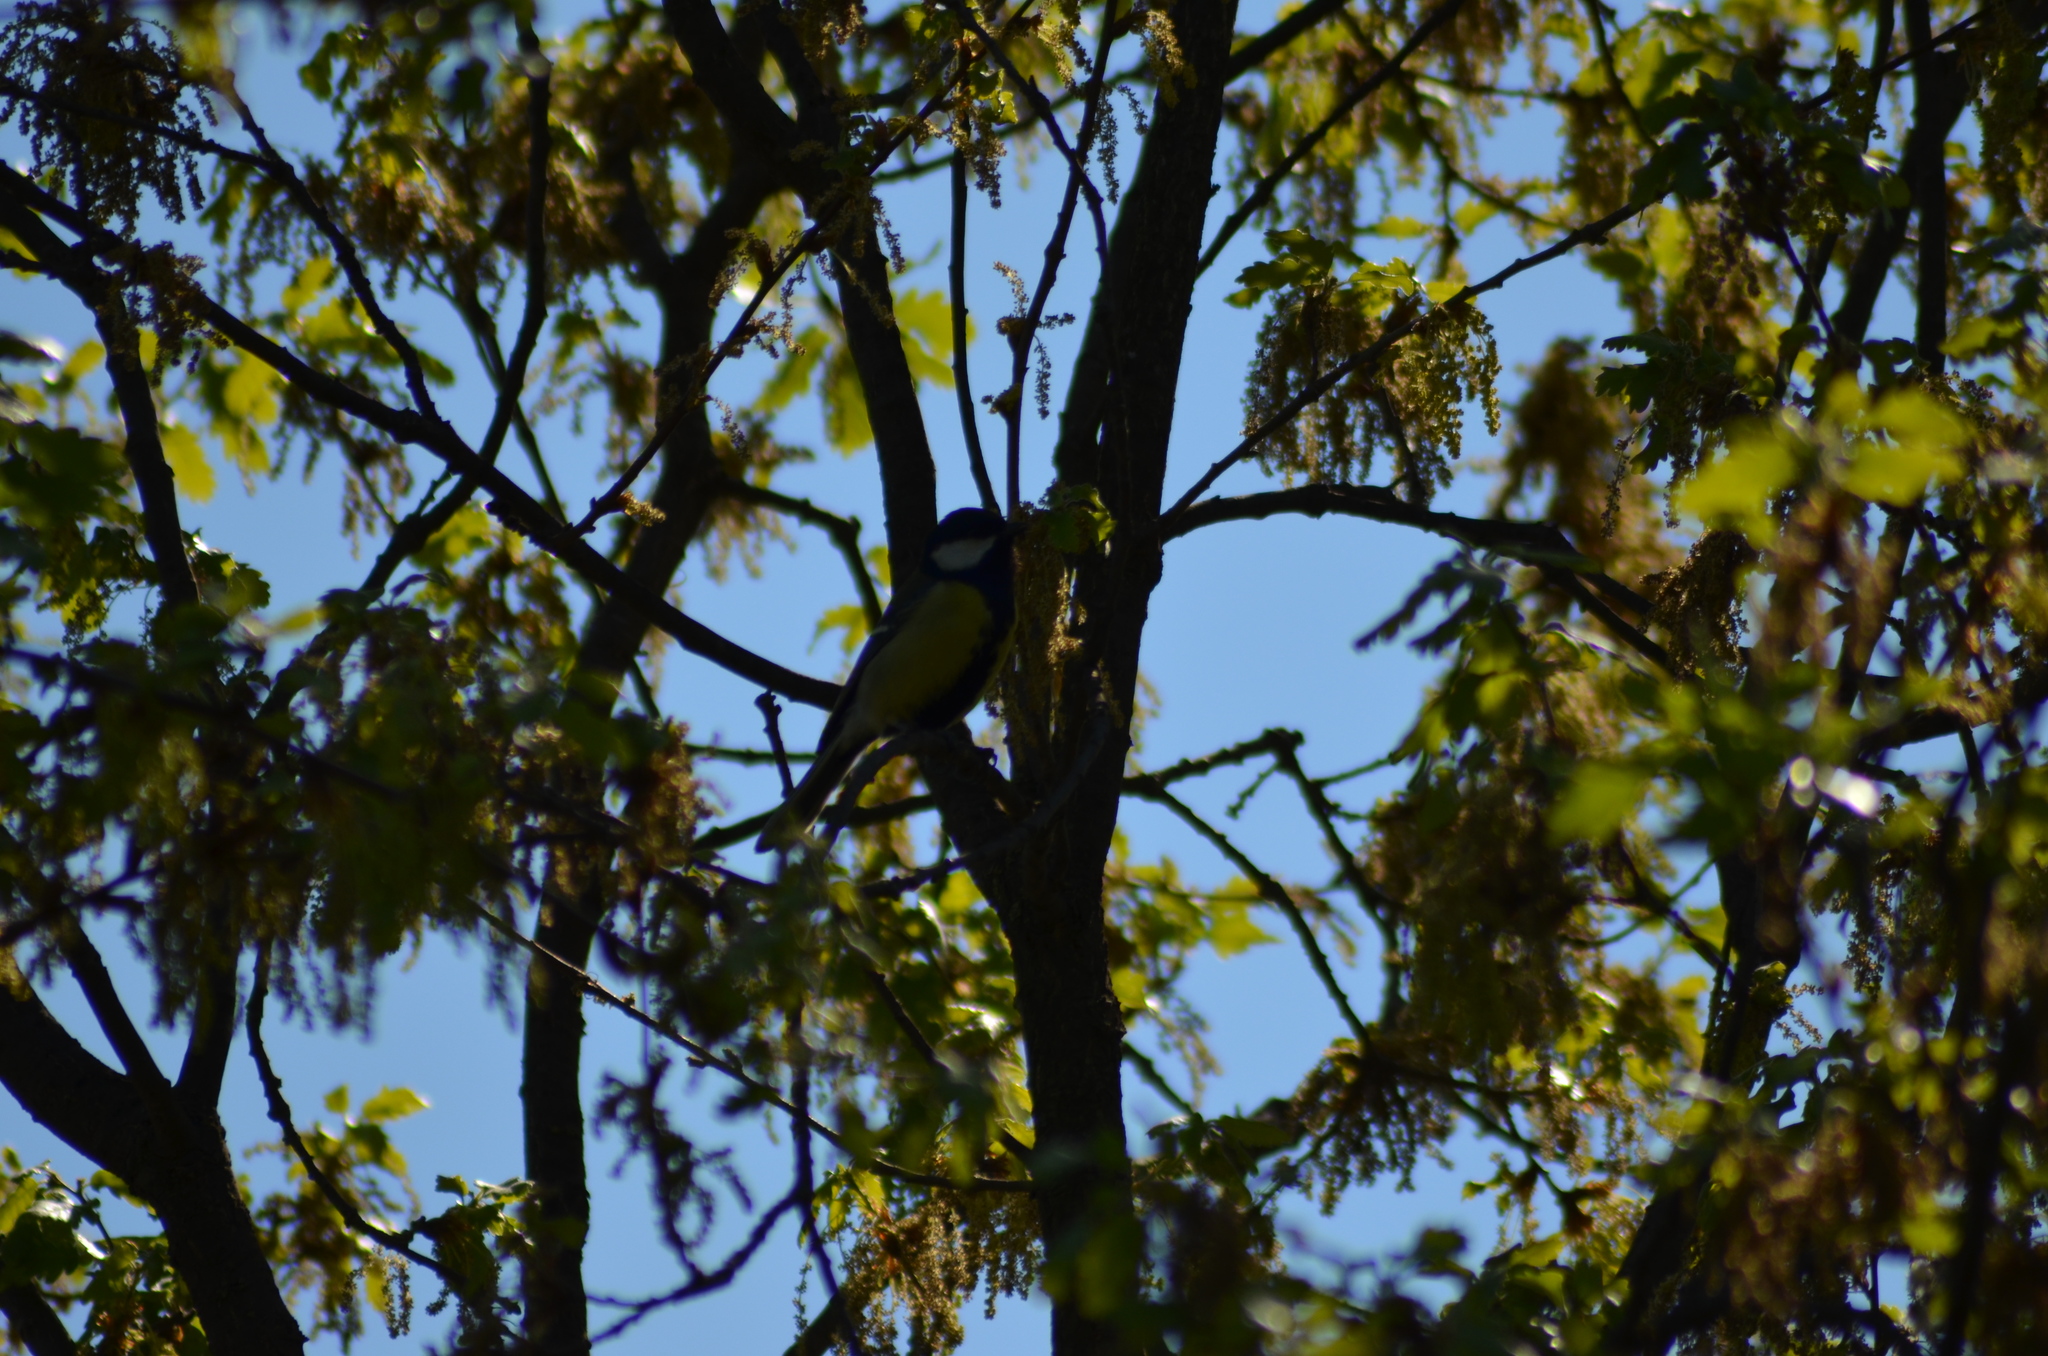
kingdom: Animalia
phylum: Chordata
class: Aves
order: Passeriformes
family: Paridae
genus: Parus
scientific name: Parus major
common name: Great tit
